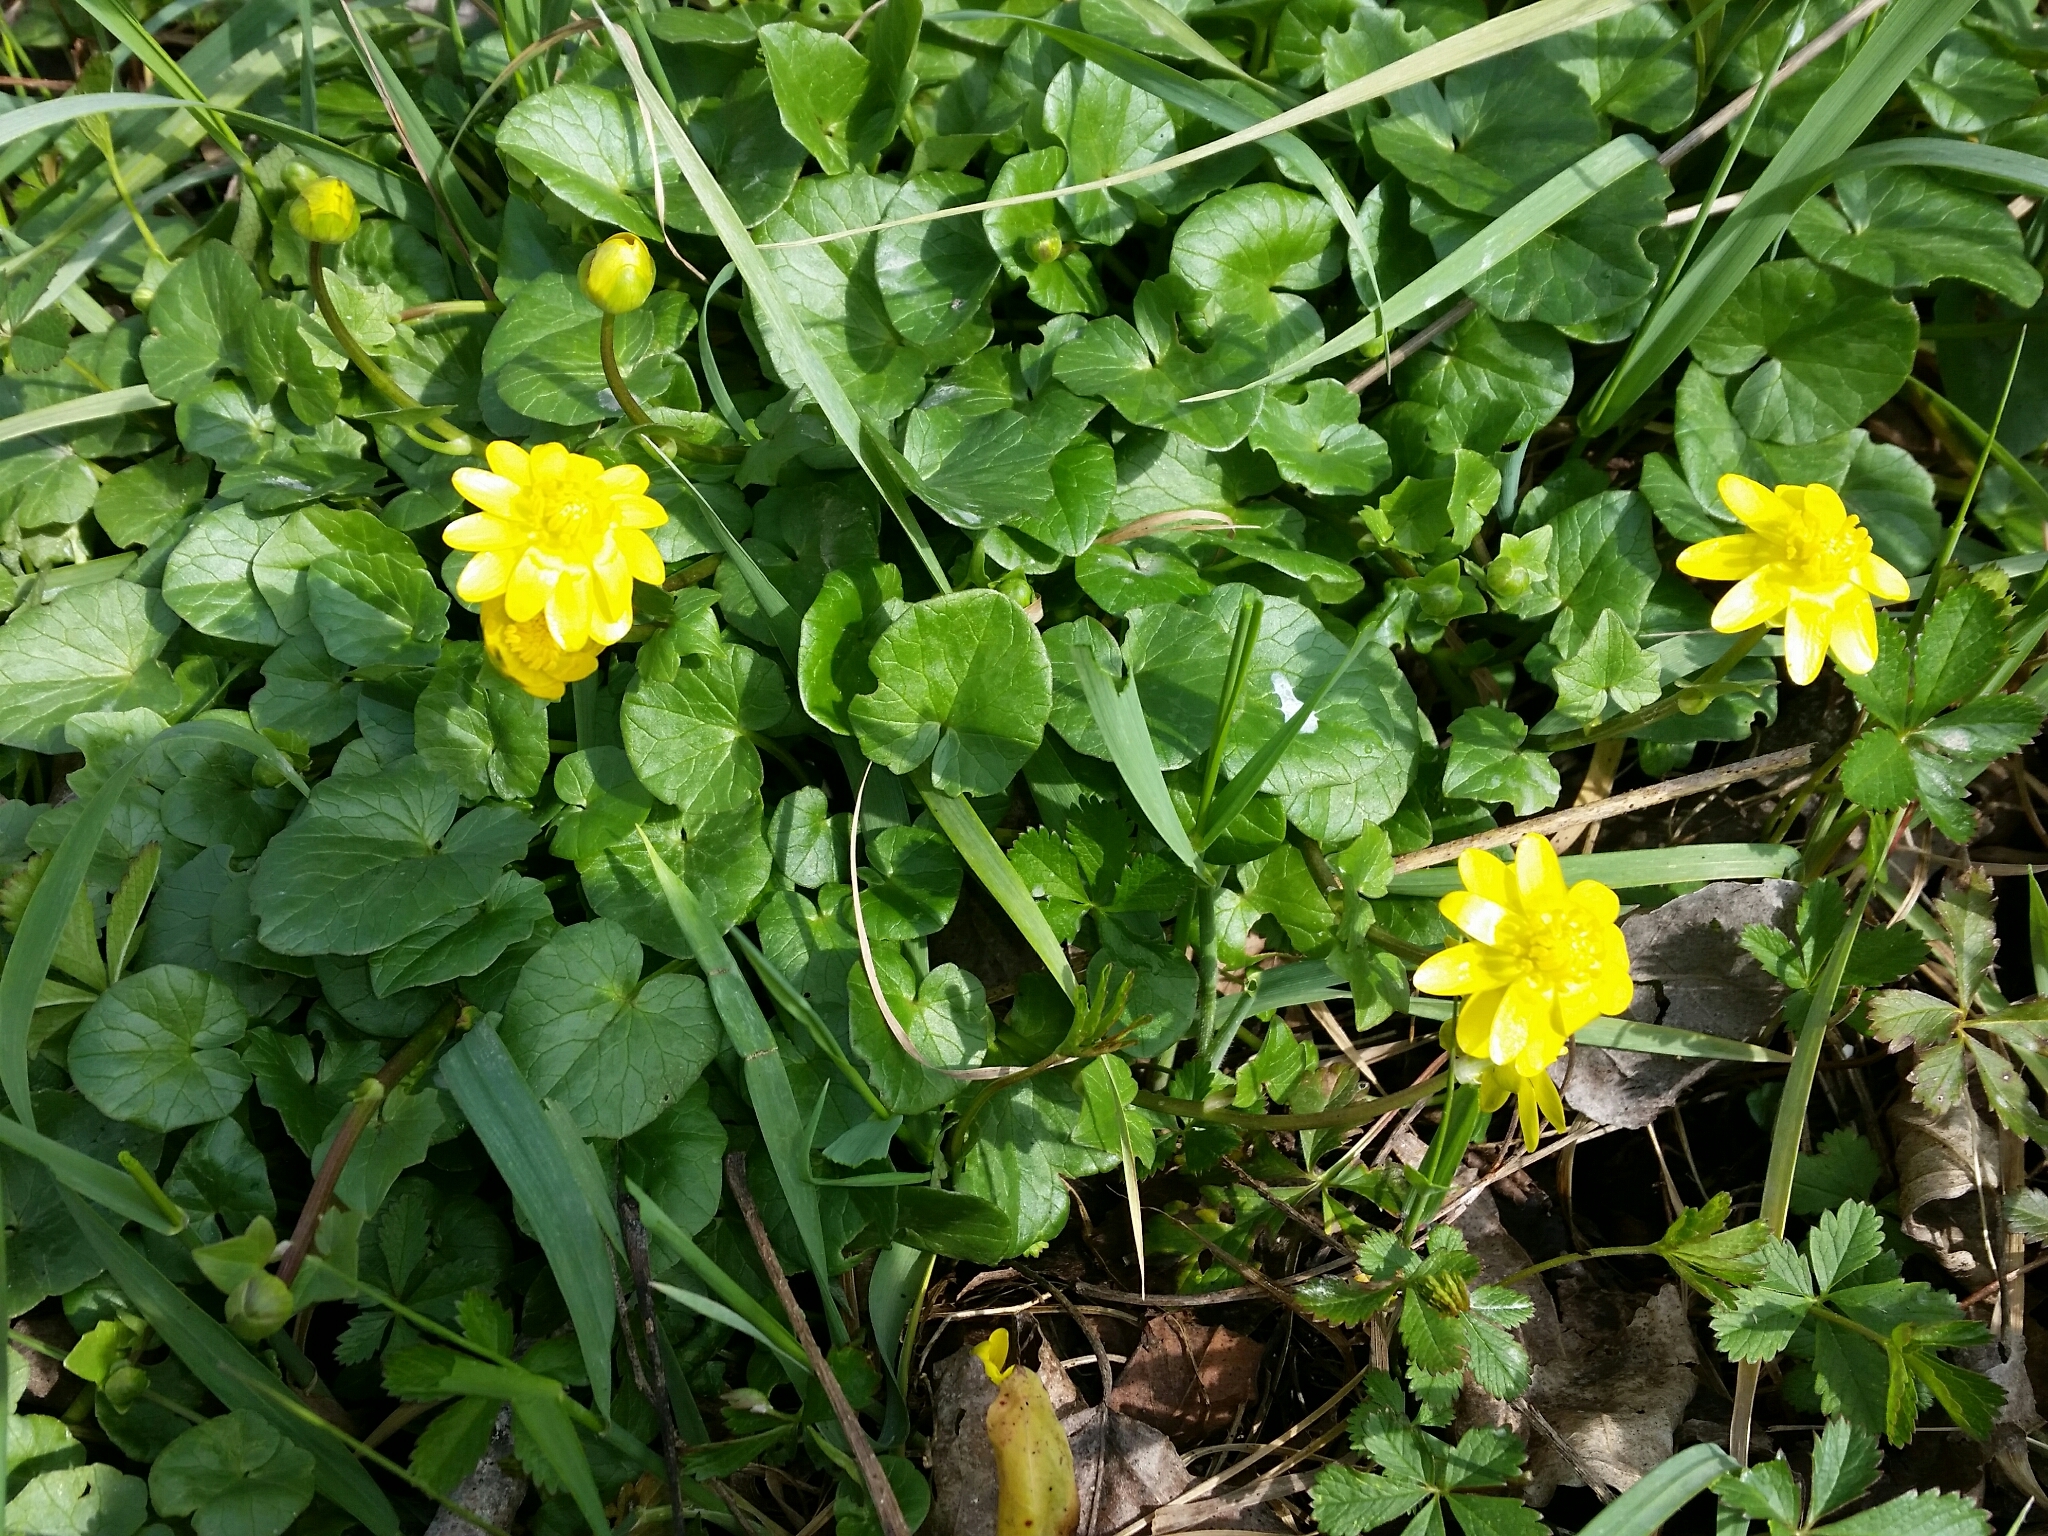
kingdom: Plantae
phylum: Tracheophyta
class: Magnoliopsida
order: Ranunculales
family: Ranunculaceae
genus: Ficaria
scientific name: Ficaria verna
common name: Lesser celandine
